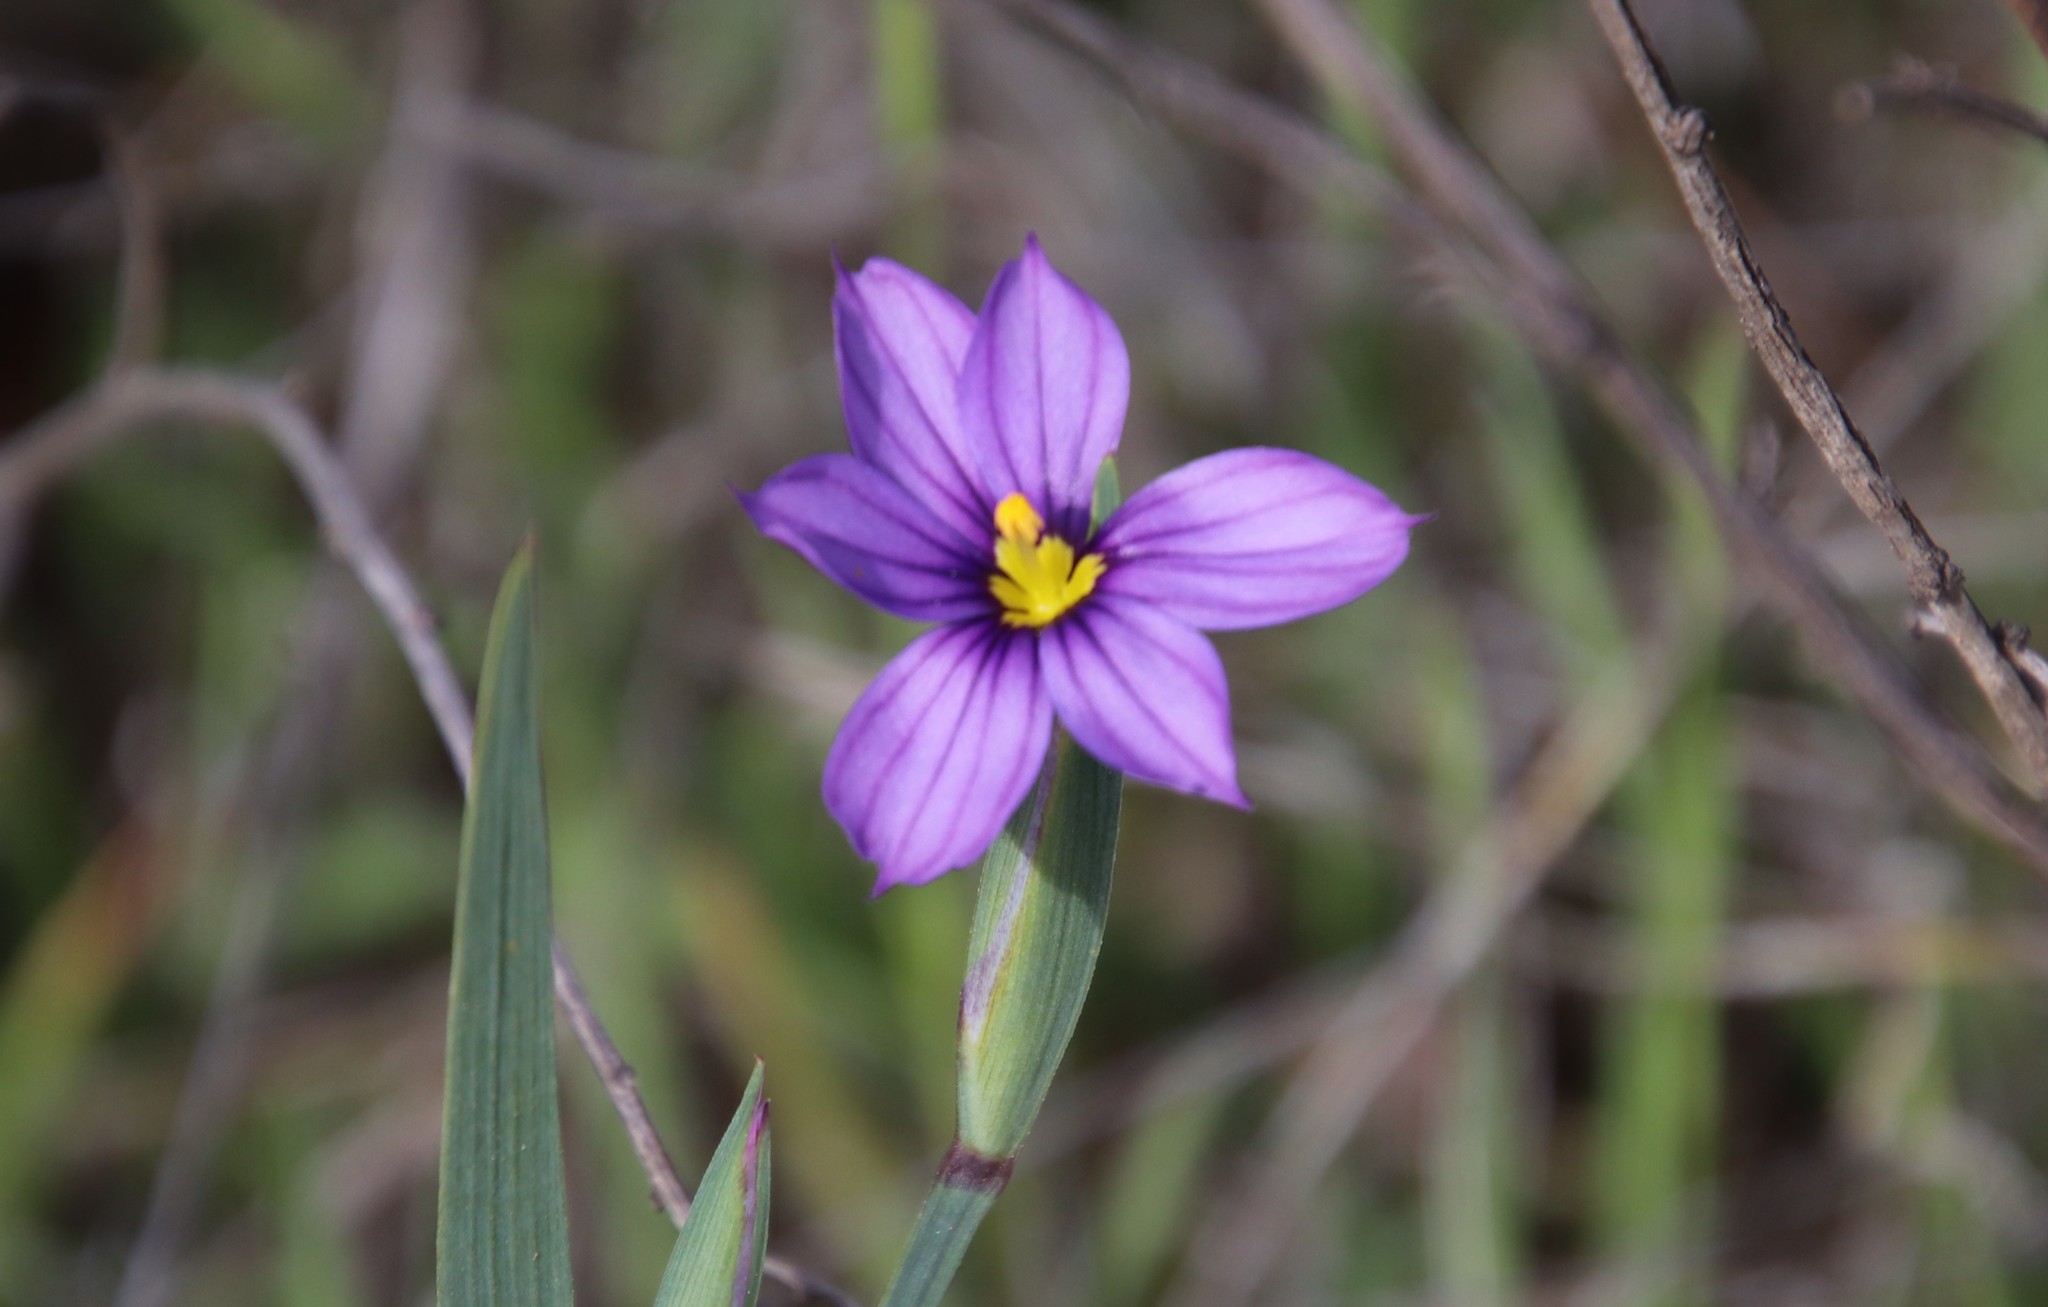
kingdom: Plantae
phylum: Tracheophyta
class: Liliopsida
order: Asparagales
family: Iridaceae
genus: Sisyrinchium
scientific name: Sisyrinchium bellum
